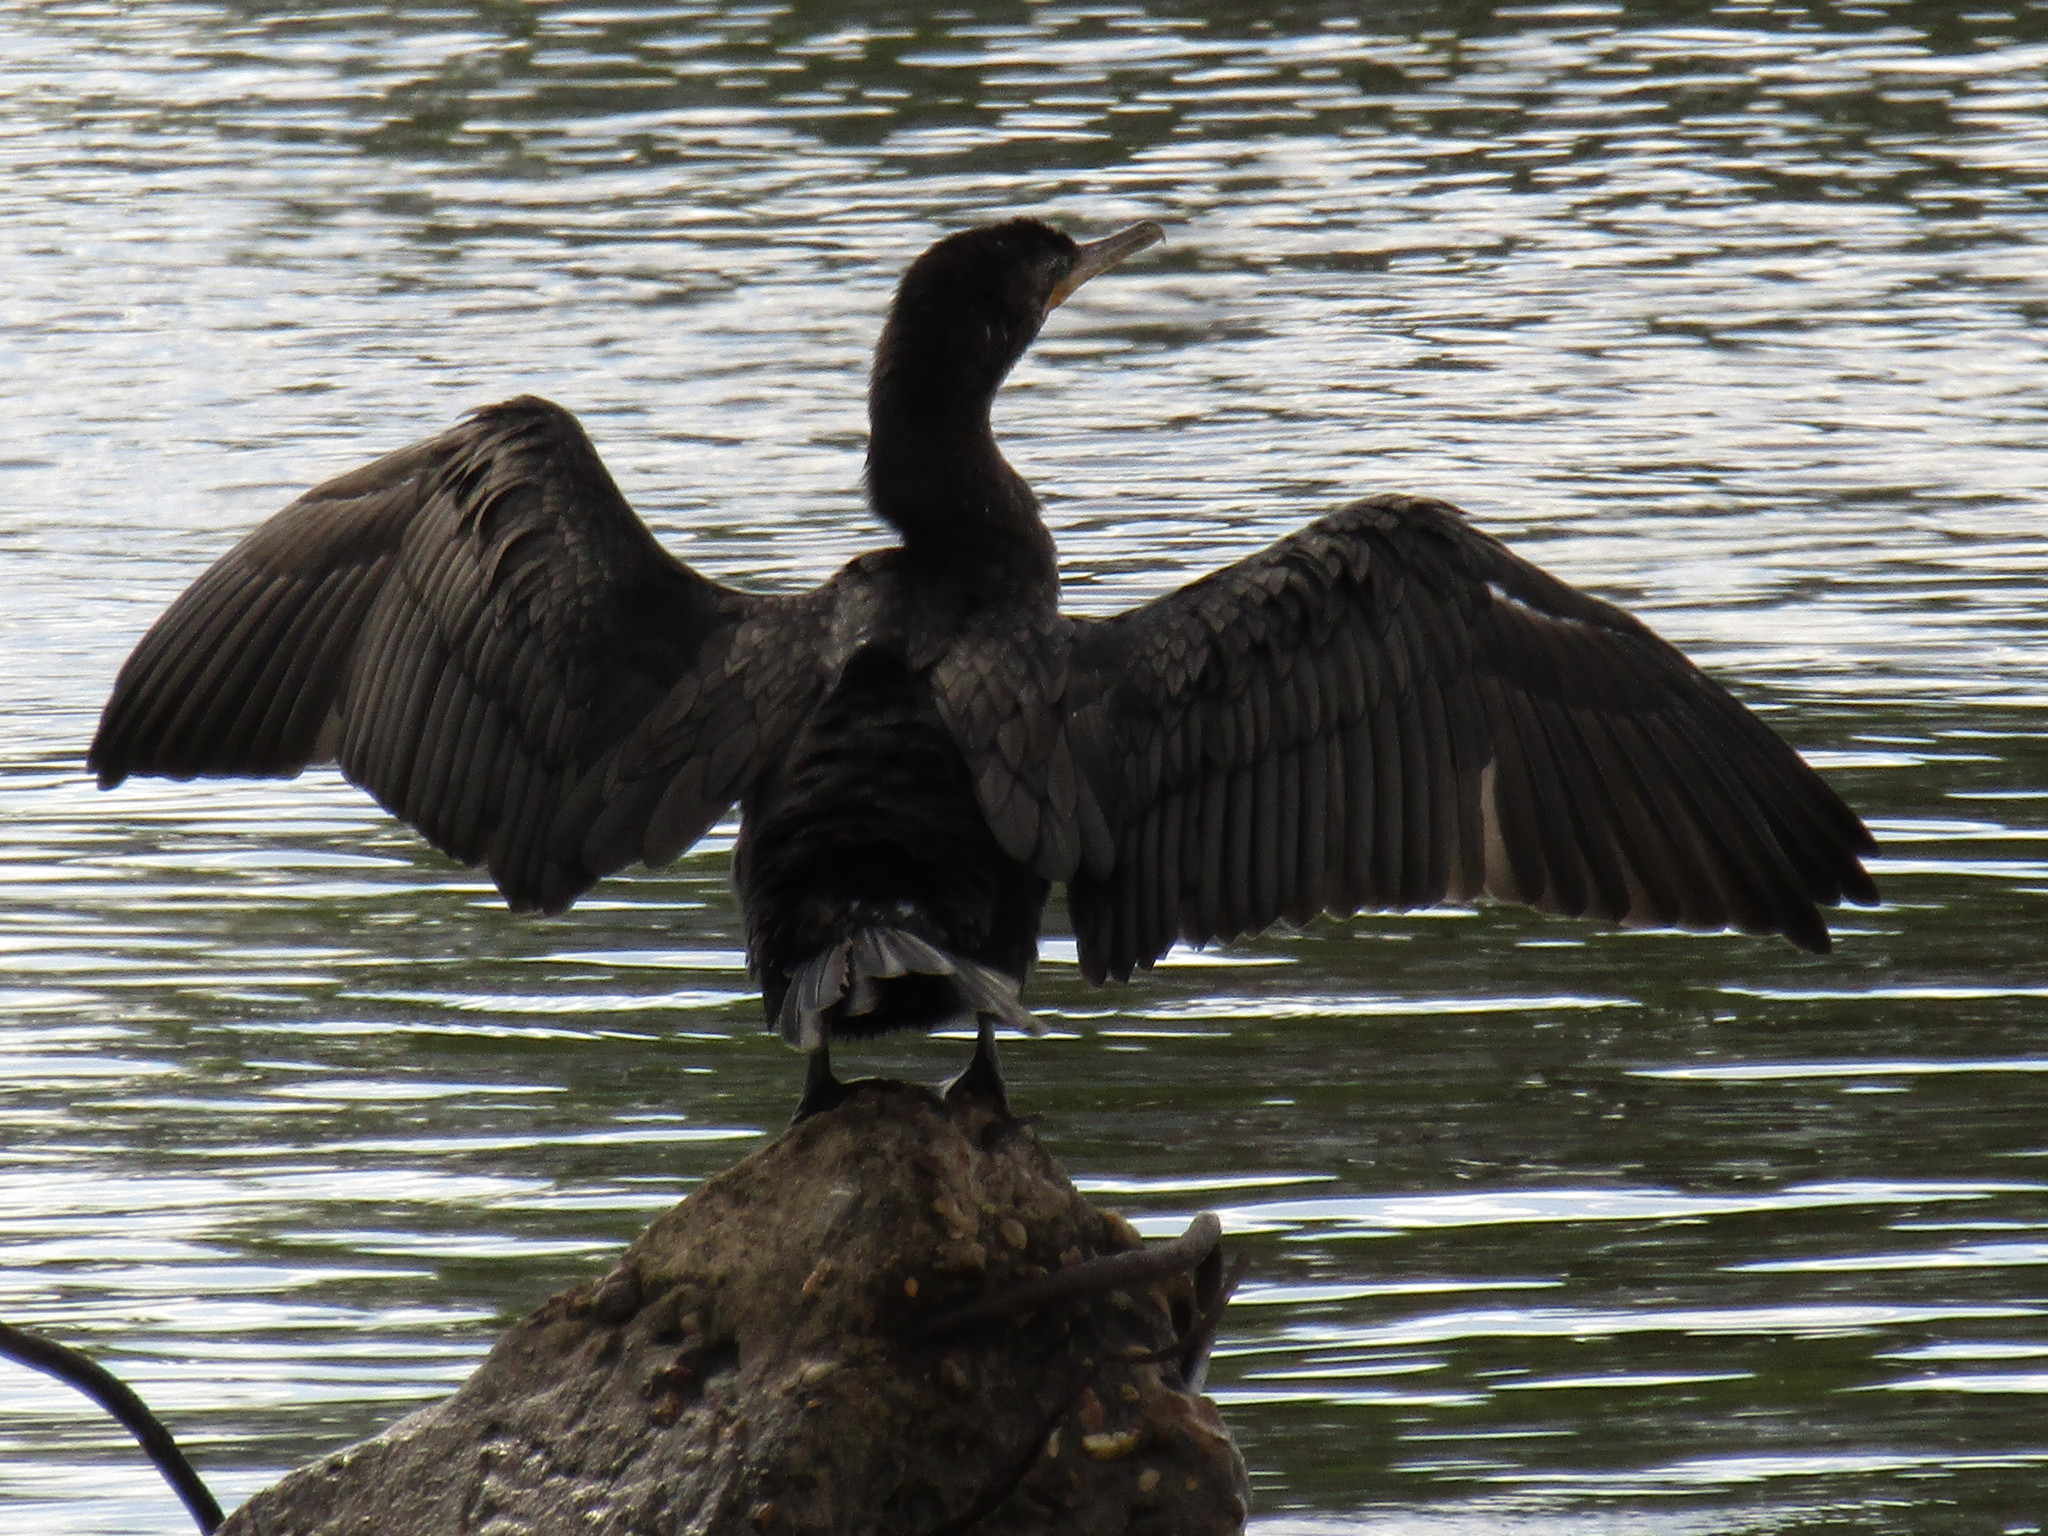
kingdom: Animalia
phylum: Chordata
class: Aves
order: Suliformes
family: Phalacrocoracidae
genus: Phalacrocorax
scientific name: Phalacrocorax brasilianus
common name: Neotropic cormorant
